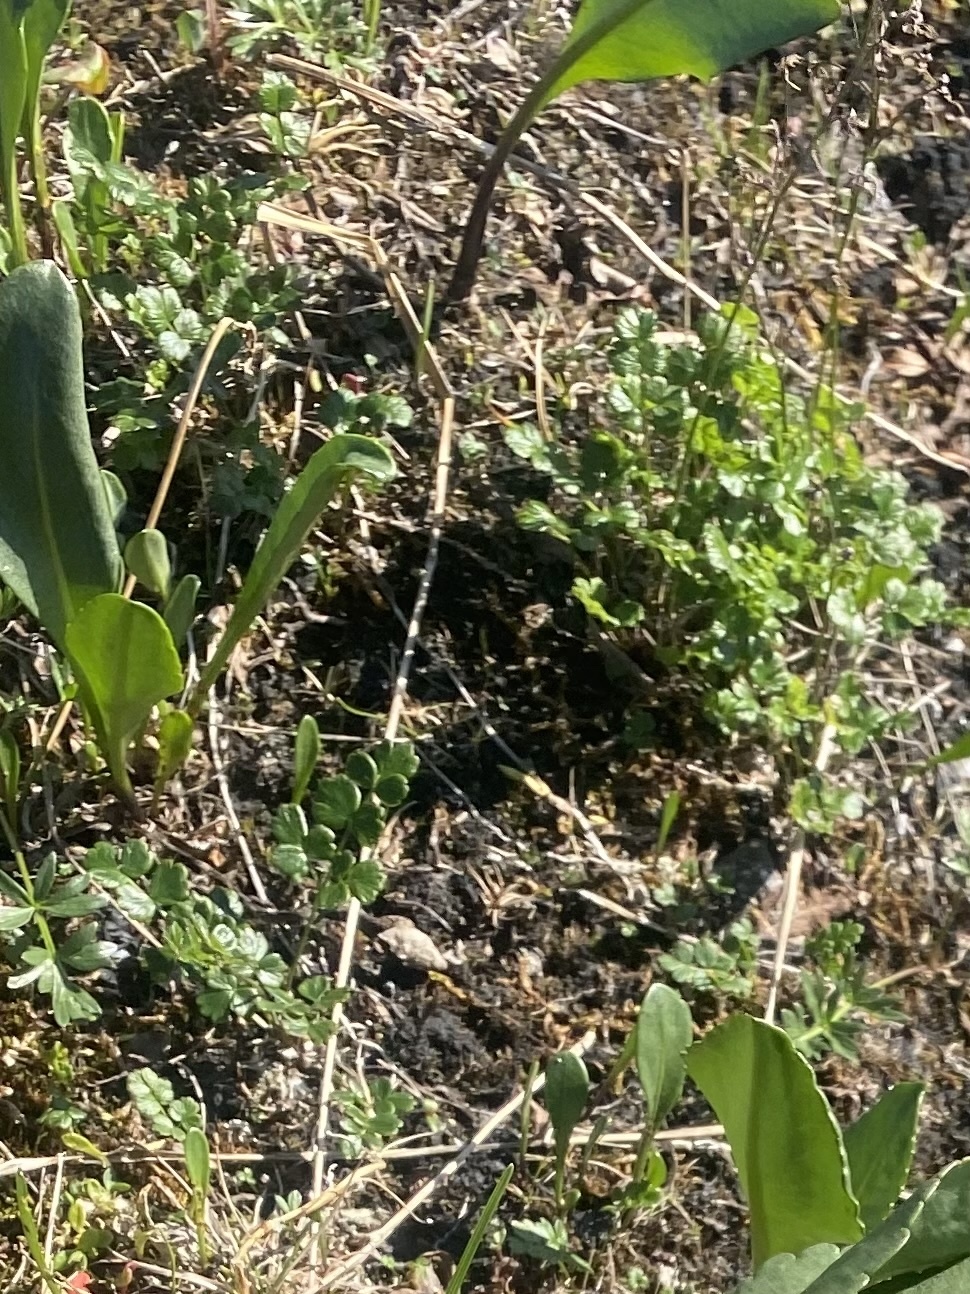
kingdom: Plantae
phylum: Tracheophyta
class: Magnoliopsida
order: Ranunculales
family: Ranunculaceae
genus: Thalictrum
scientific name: Thalictrum alpinum
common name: Alpine meadow-rue
